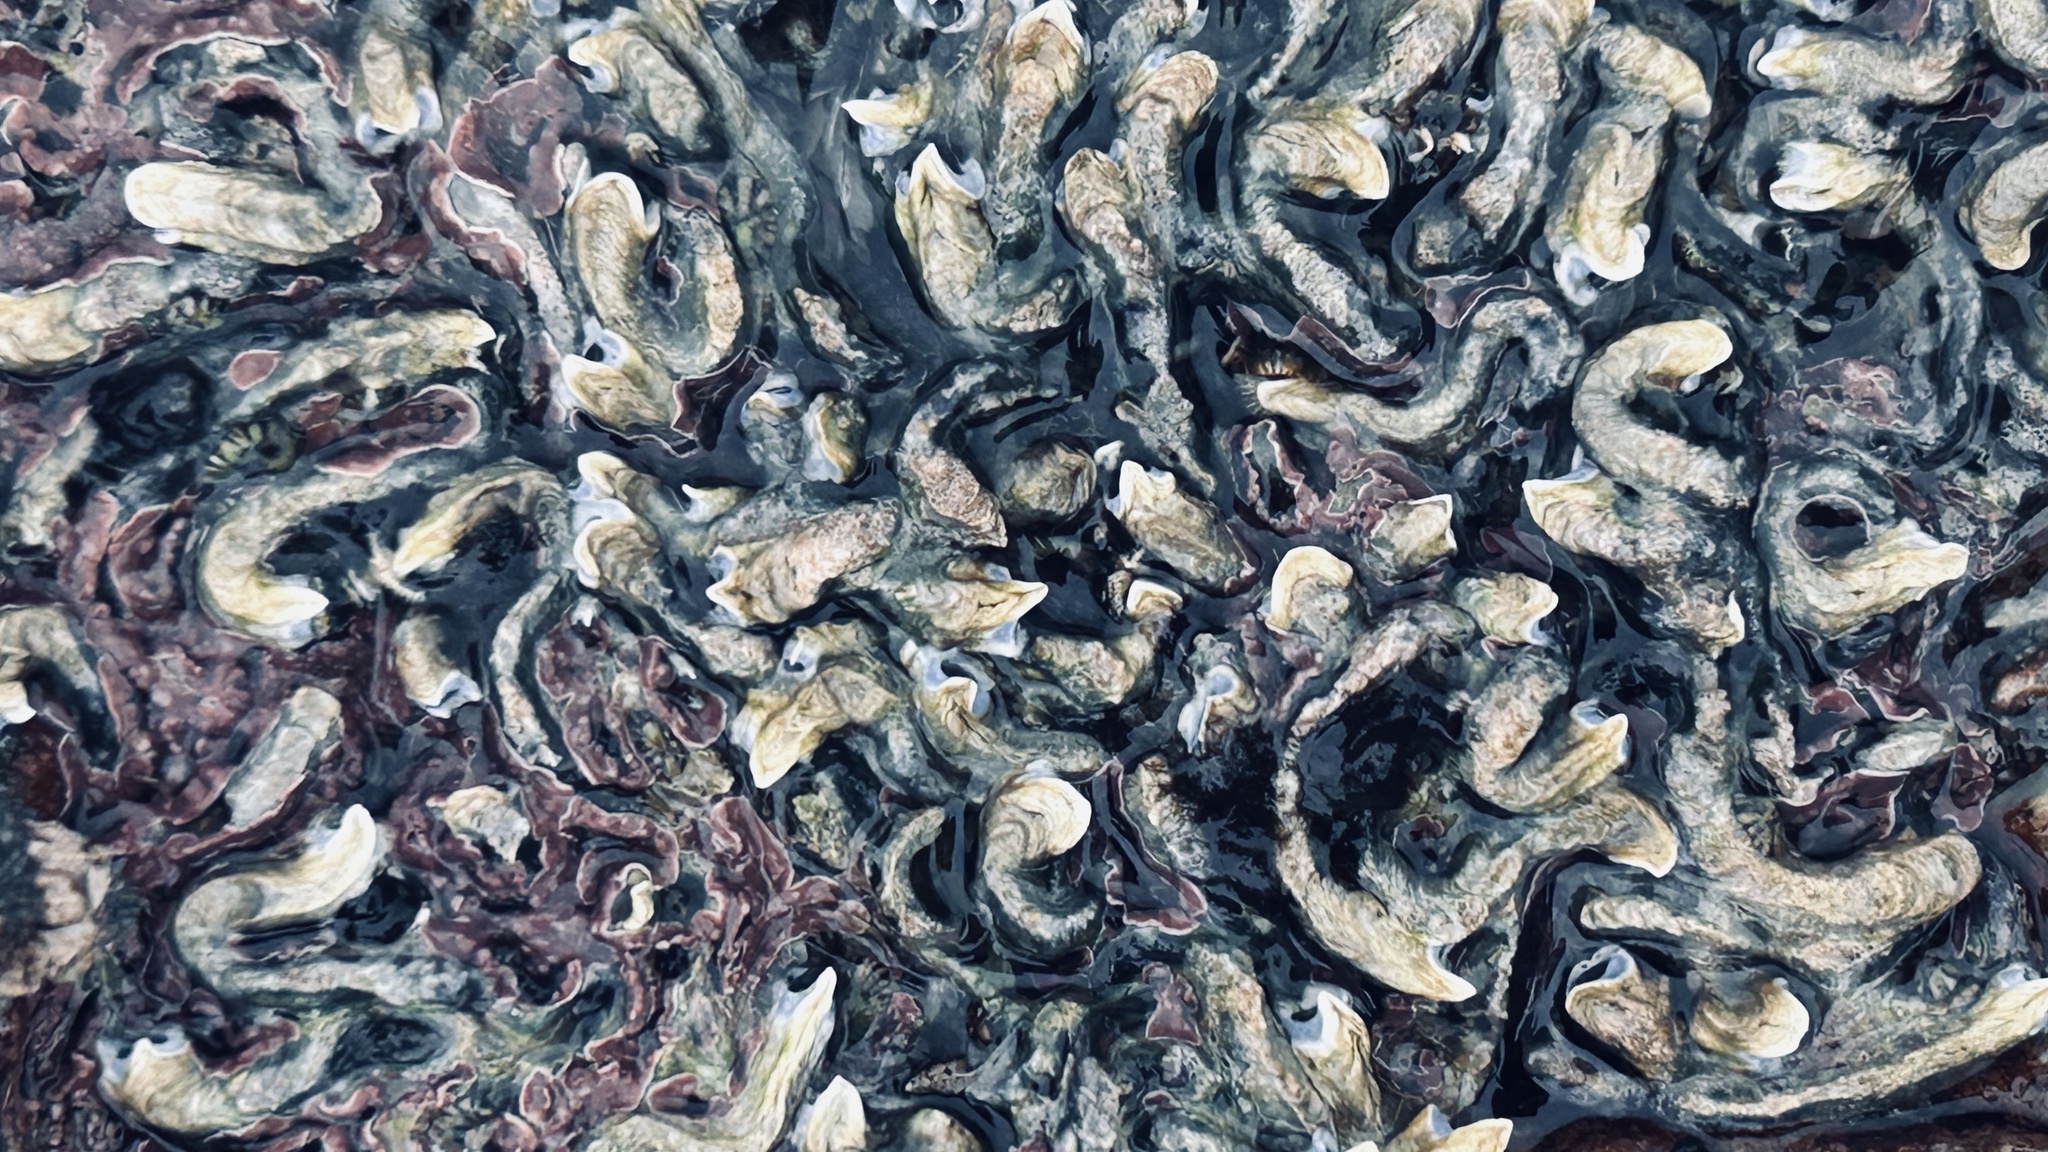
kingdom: Animalia
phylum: Annelida
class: Polychaeta
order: Sabellida
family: Serpulidae
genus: Spirobranchus
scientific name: Spirobranchus kraussii
